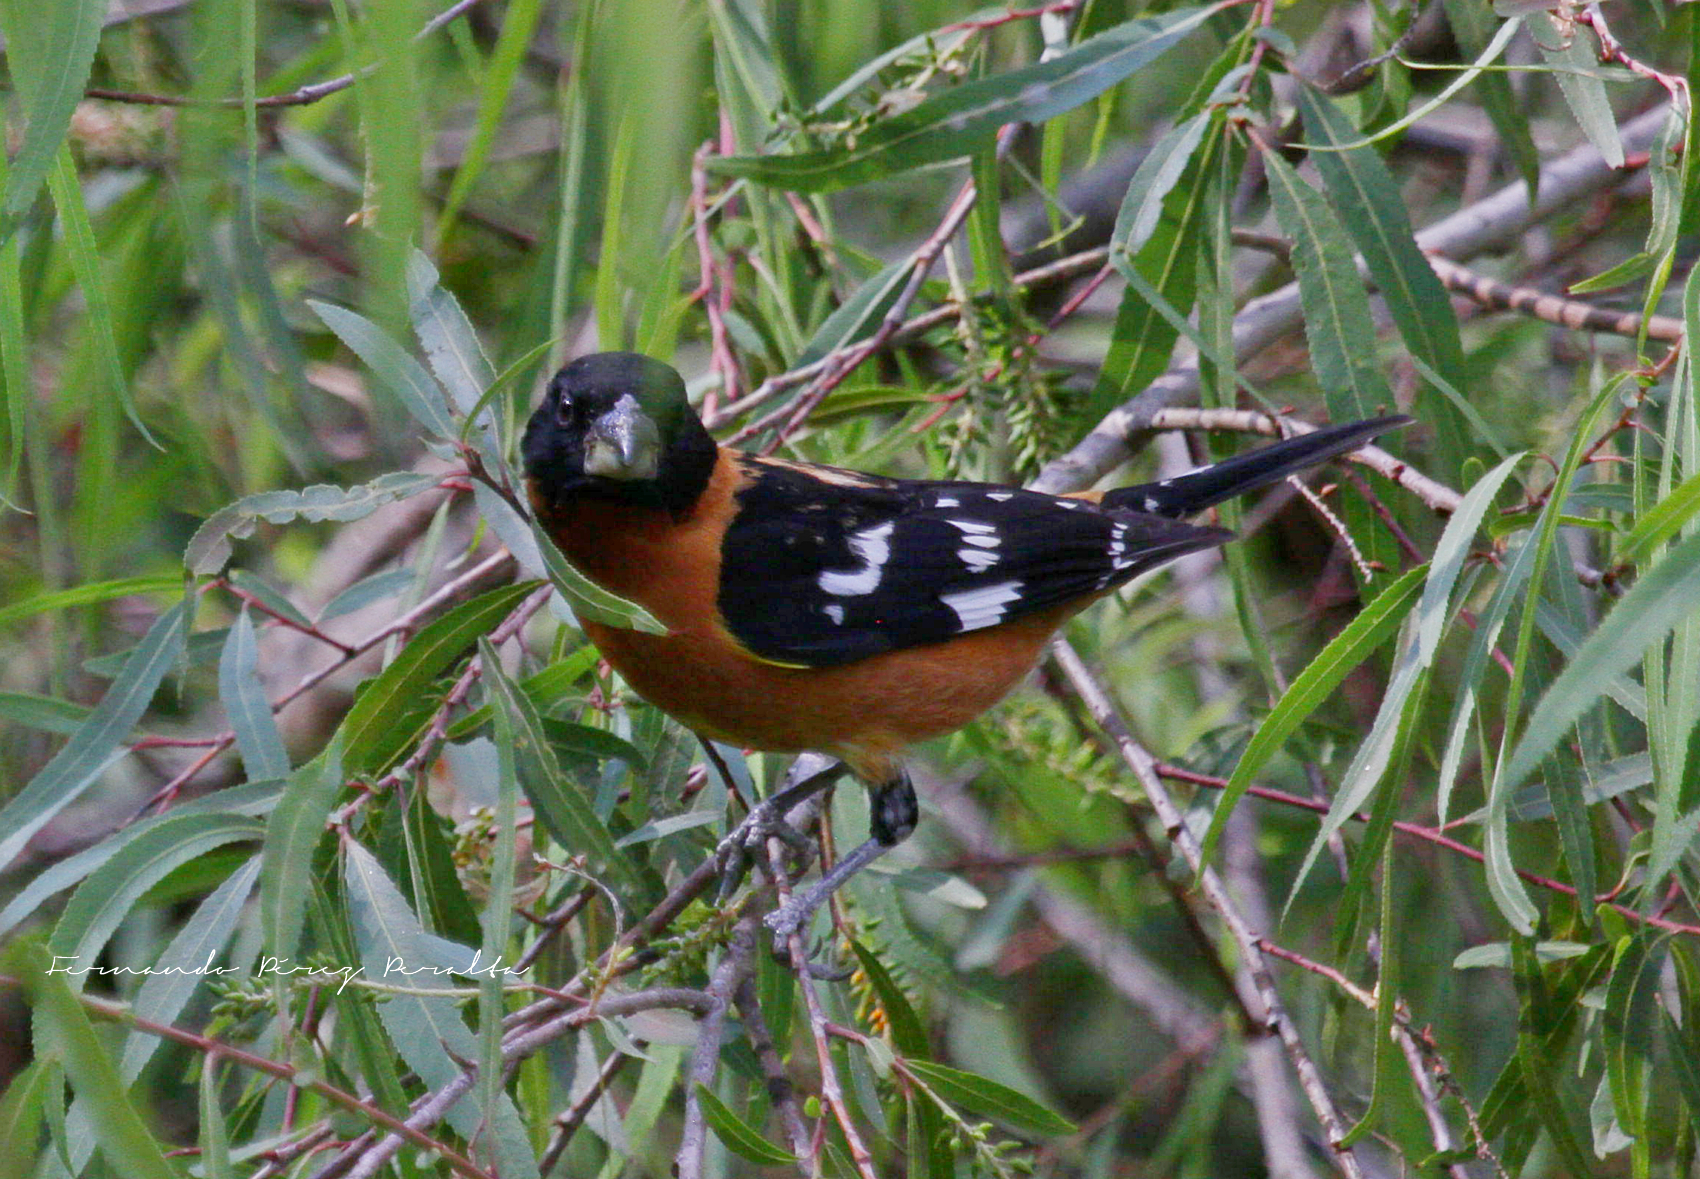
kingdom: Animalia
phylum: Chordata
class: Aves
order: Passeriformes
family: Cardinalidae
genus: Pheucticus
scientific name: Pheucticus melanocephalus
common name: Black-headed grosbeak
